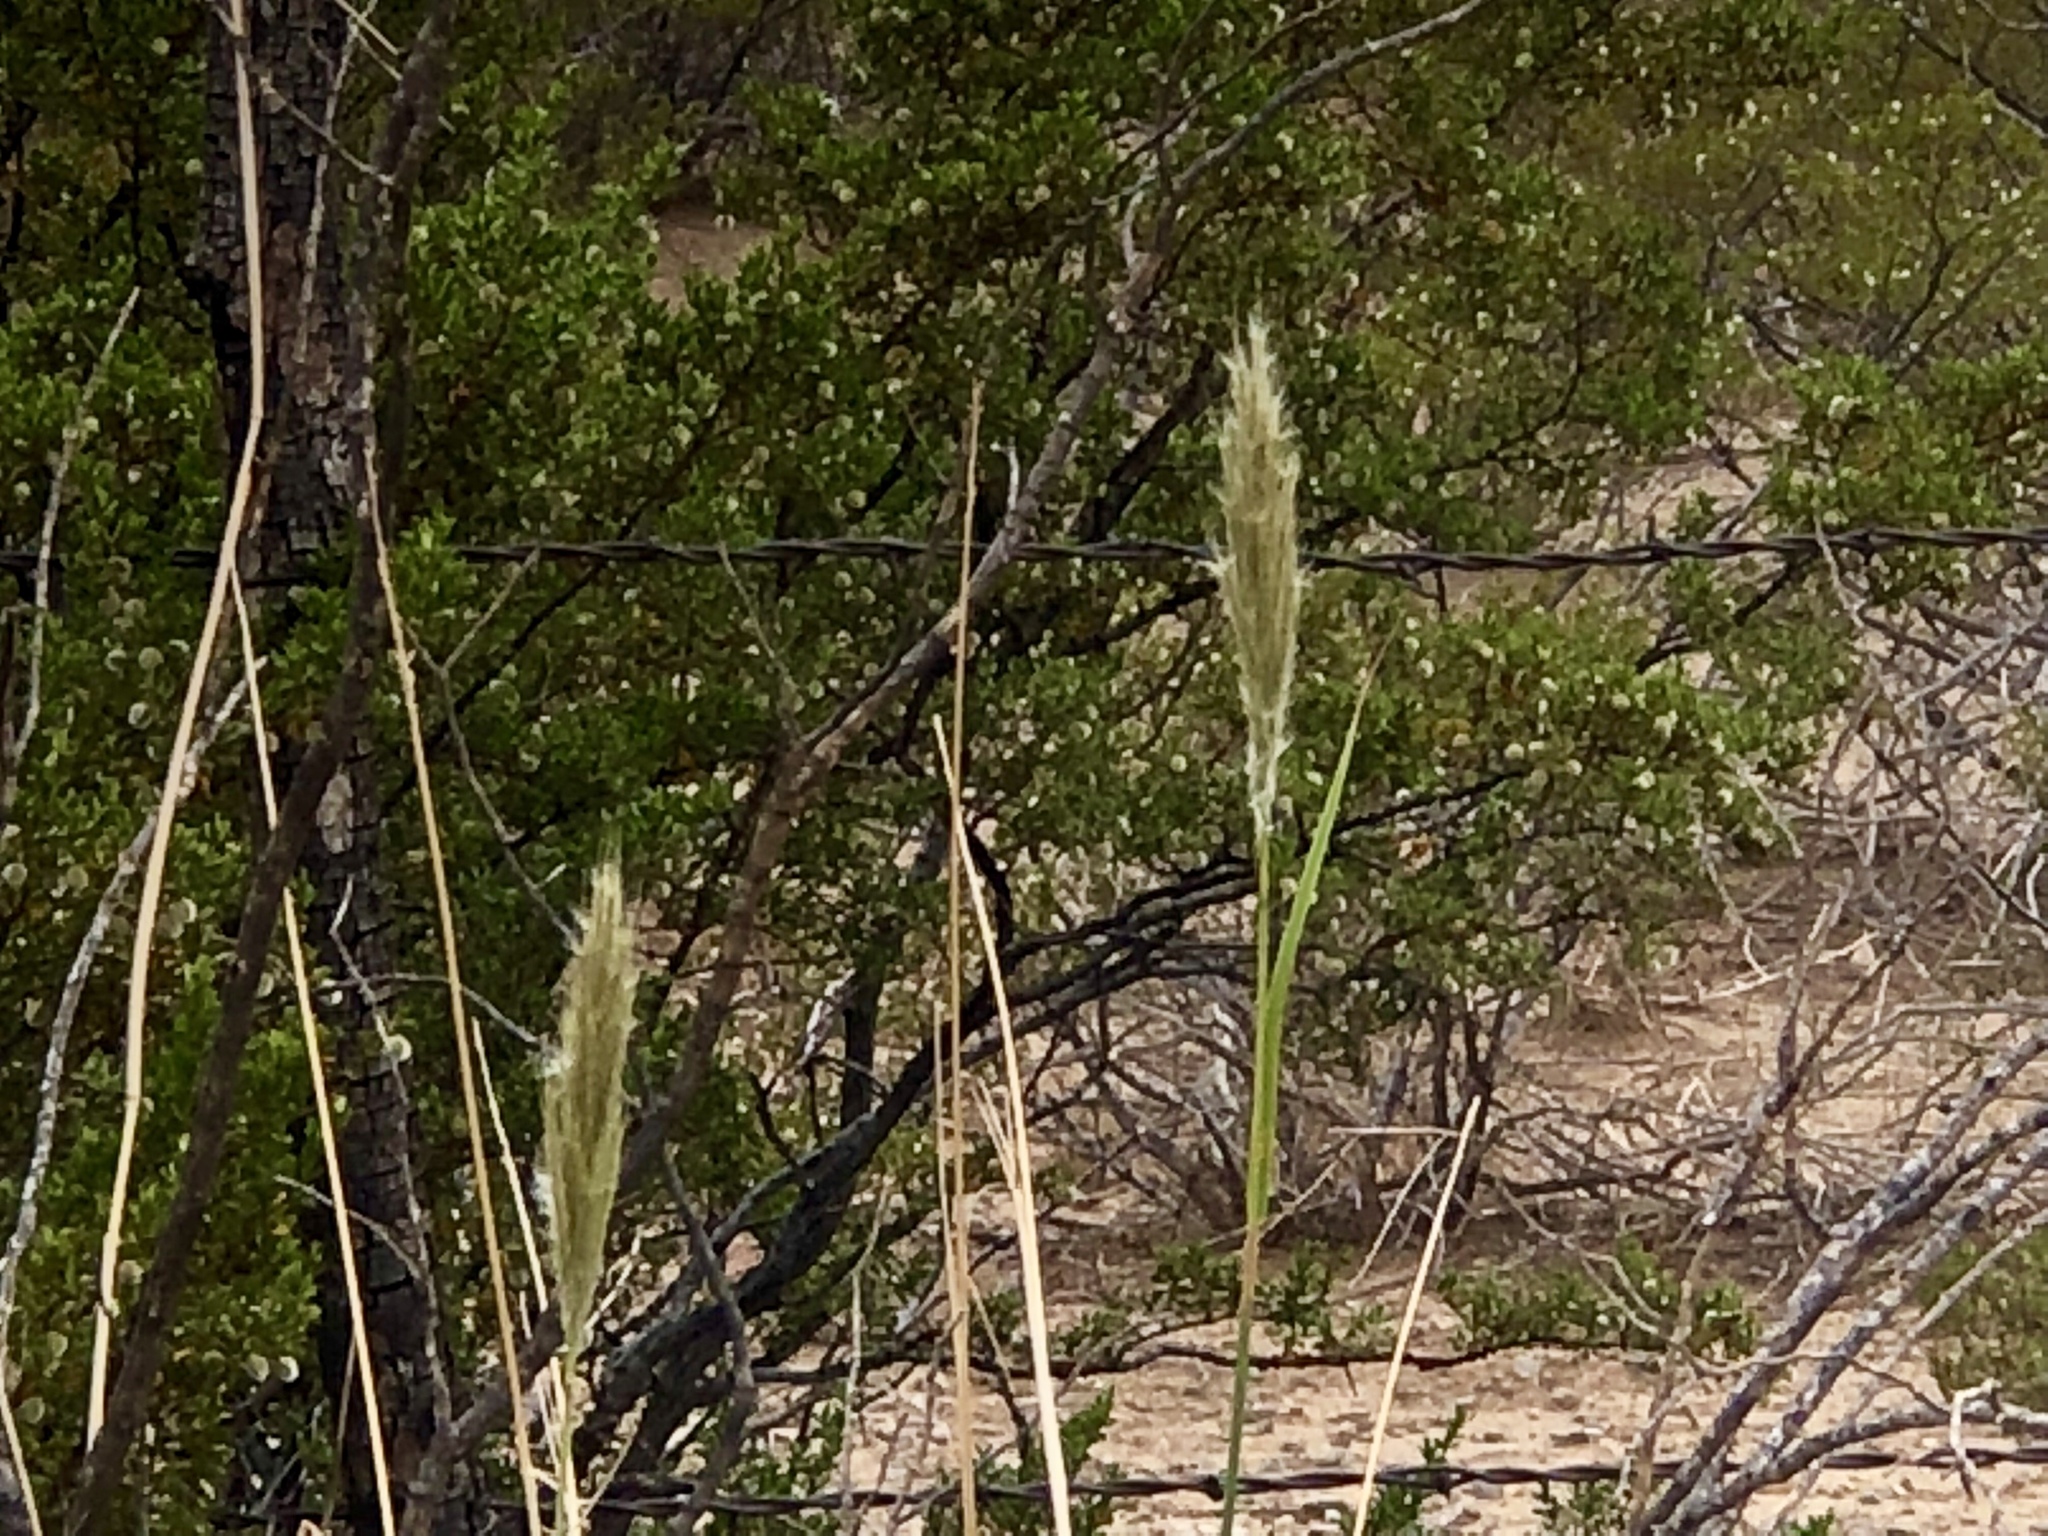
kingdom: Plantae
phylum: Tracheophyta
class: Liliopsida
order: Poales
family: Poaceae
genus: Bothriochloa
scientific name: Bothriochloa barbinodis
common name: Cane bluestem
